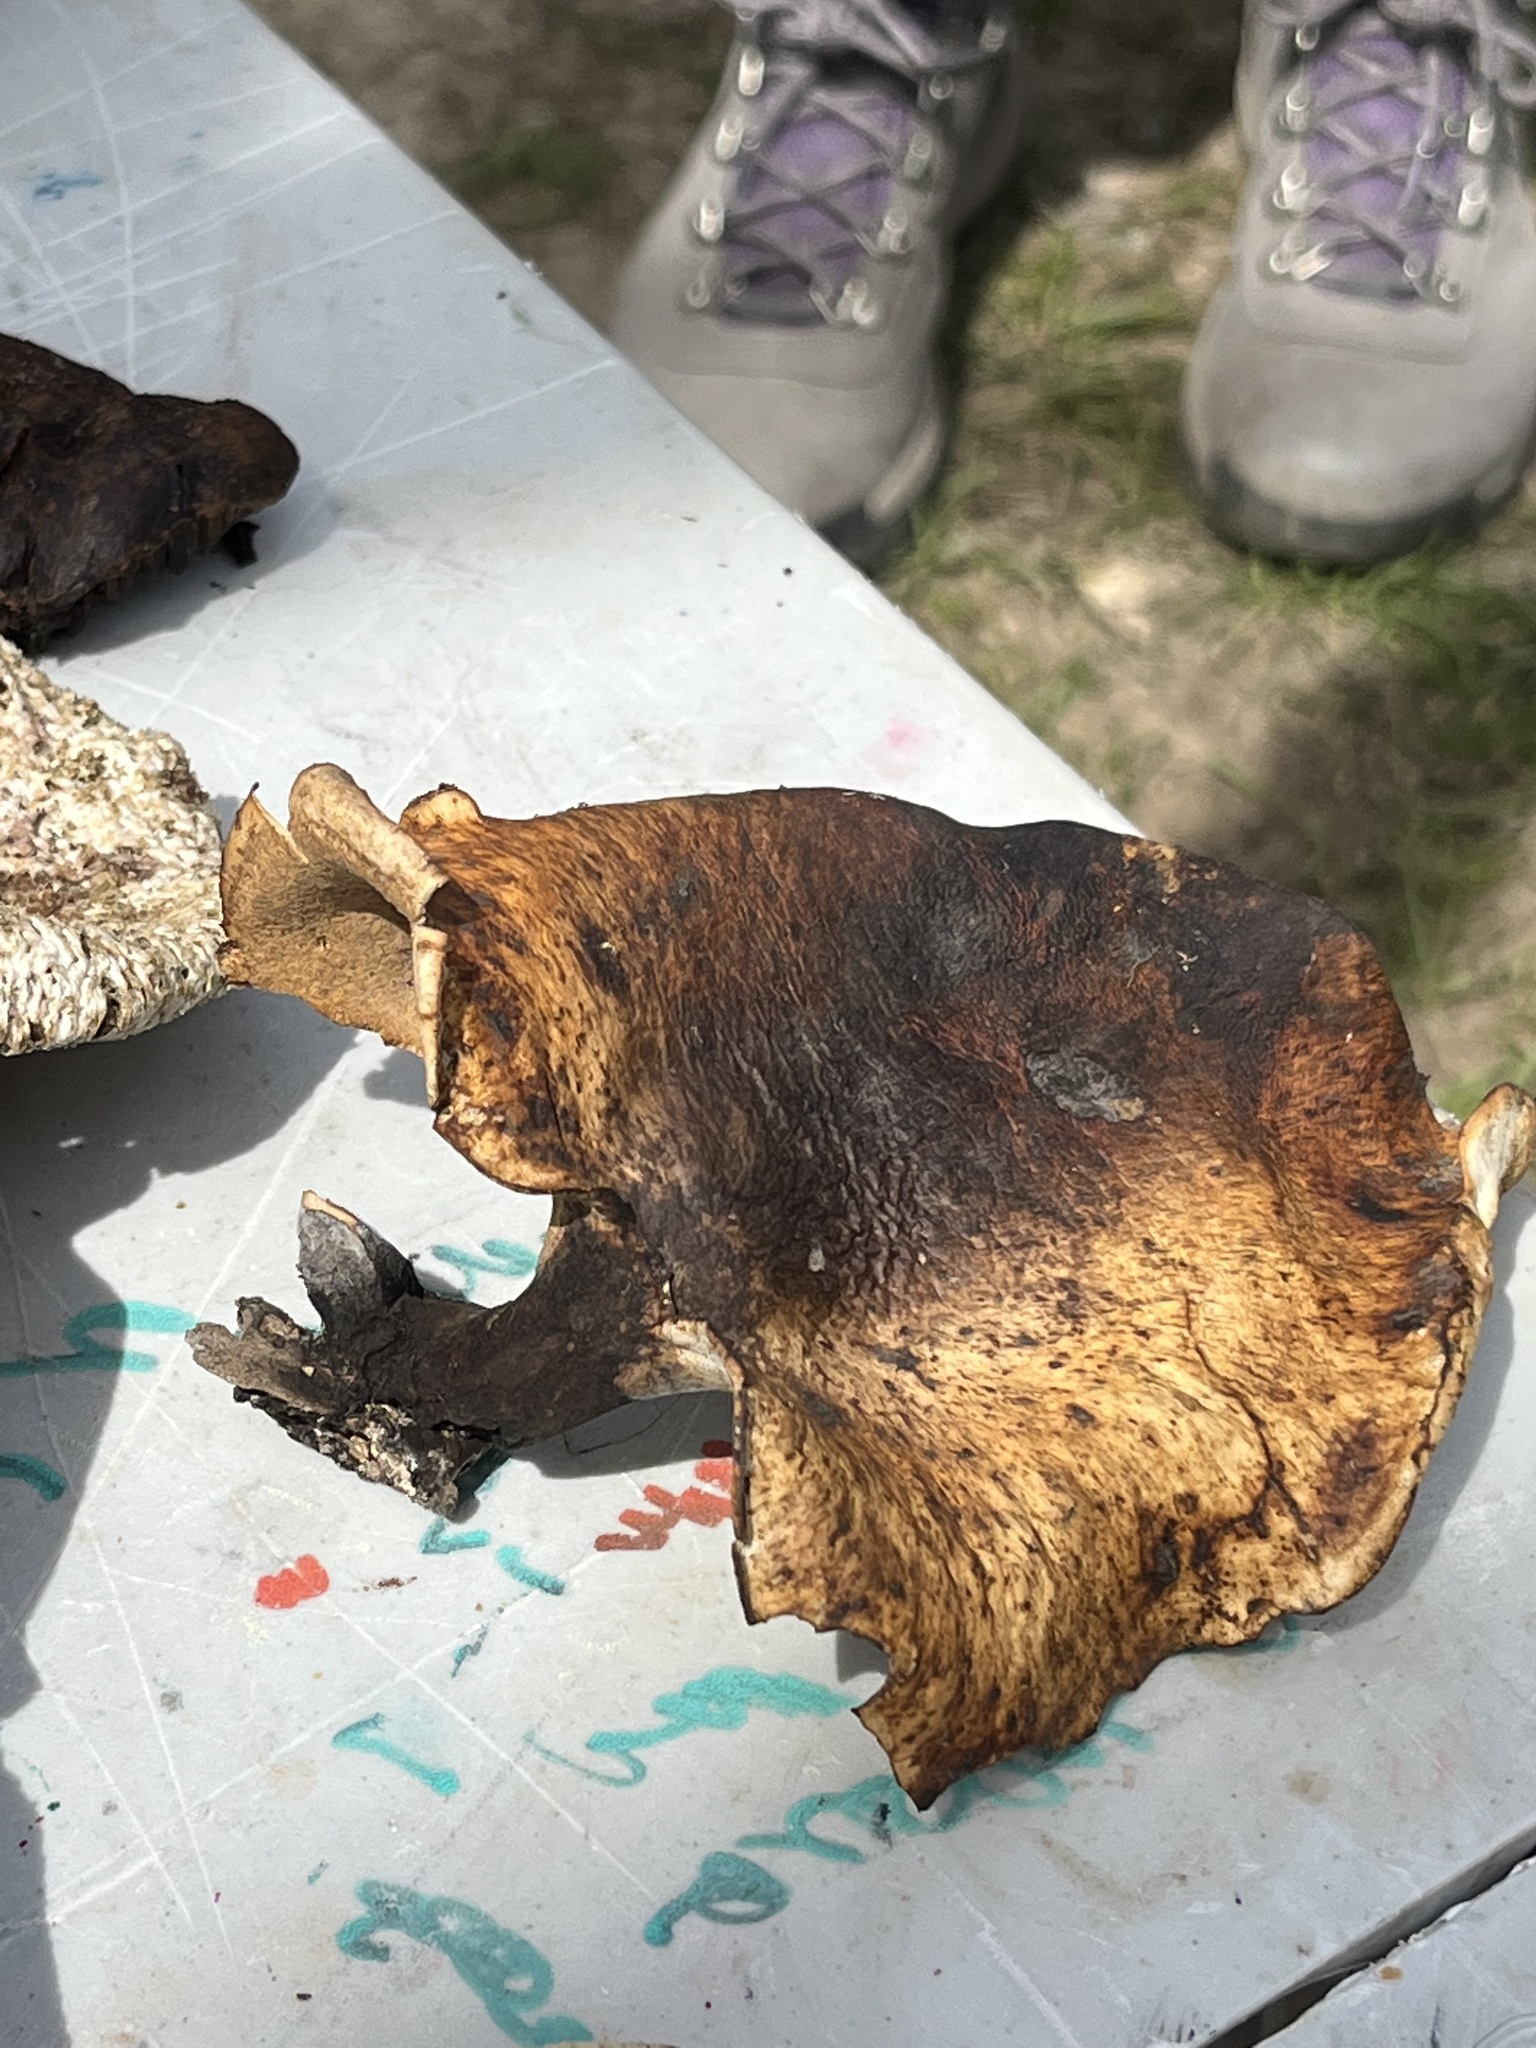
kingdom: Fungi
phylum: Basidiomycota
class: Agaricomycetes
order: Polyporales
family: Polyporaceae
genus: Picipes
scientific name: Picipes badius
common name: Bay polypore
